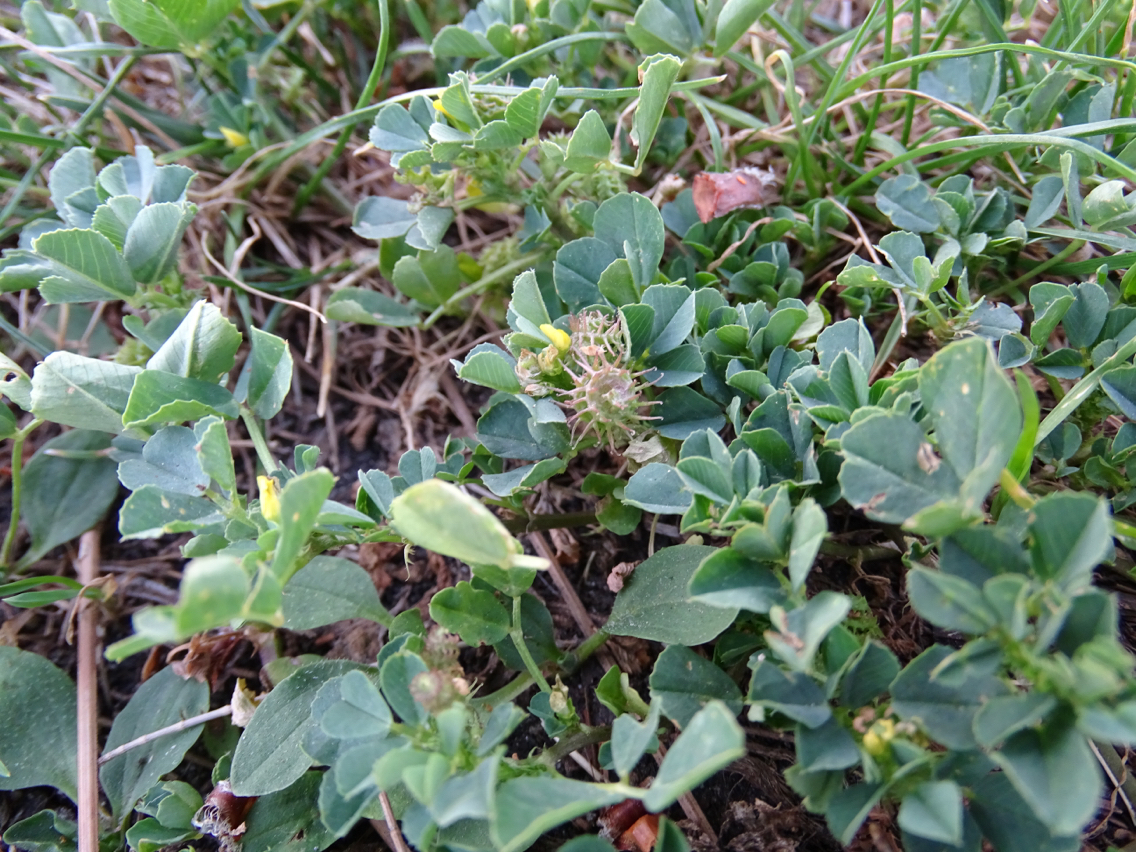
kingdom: Plantae
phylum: Tracheophyta
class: Magnoliopsida
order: Fabales
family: Fabaceae
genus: Medicago
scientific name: Medicago polymorpha
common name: Burclover
